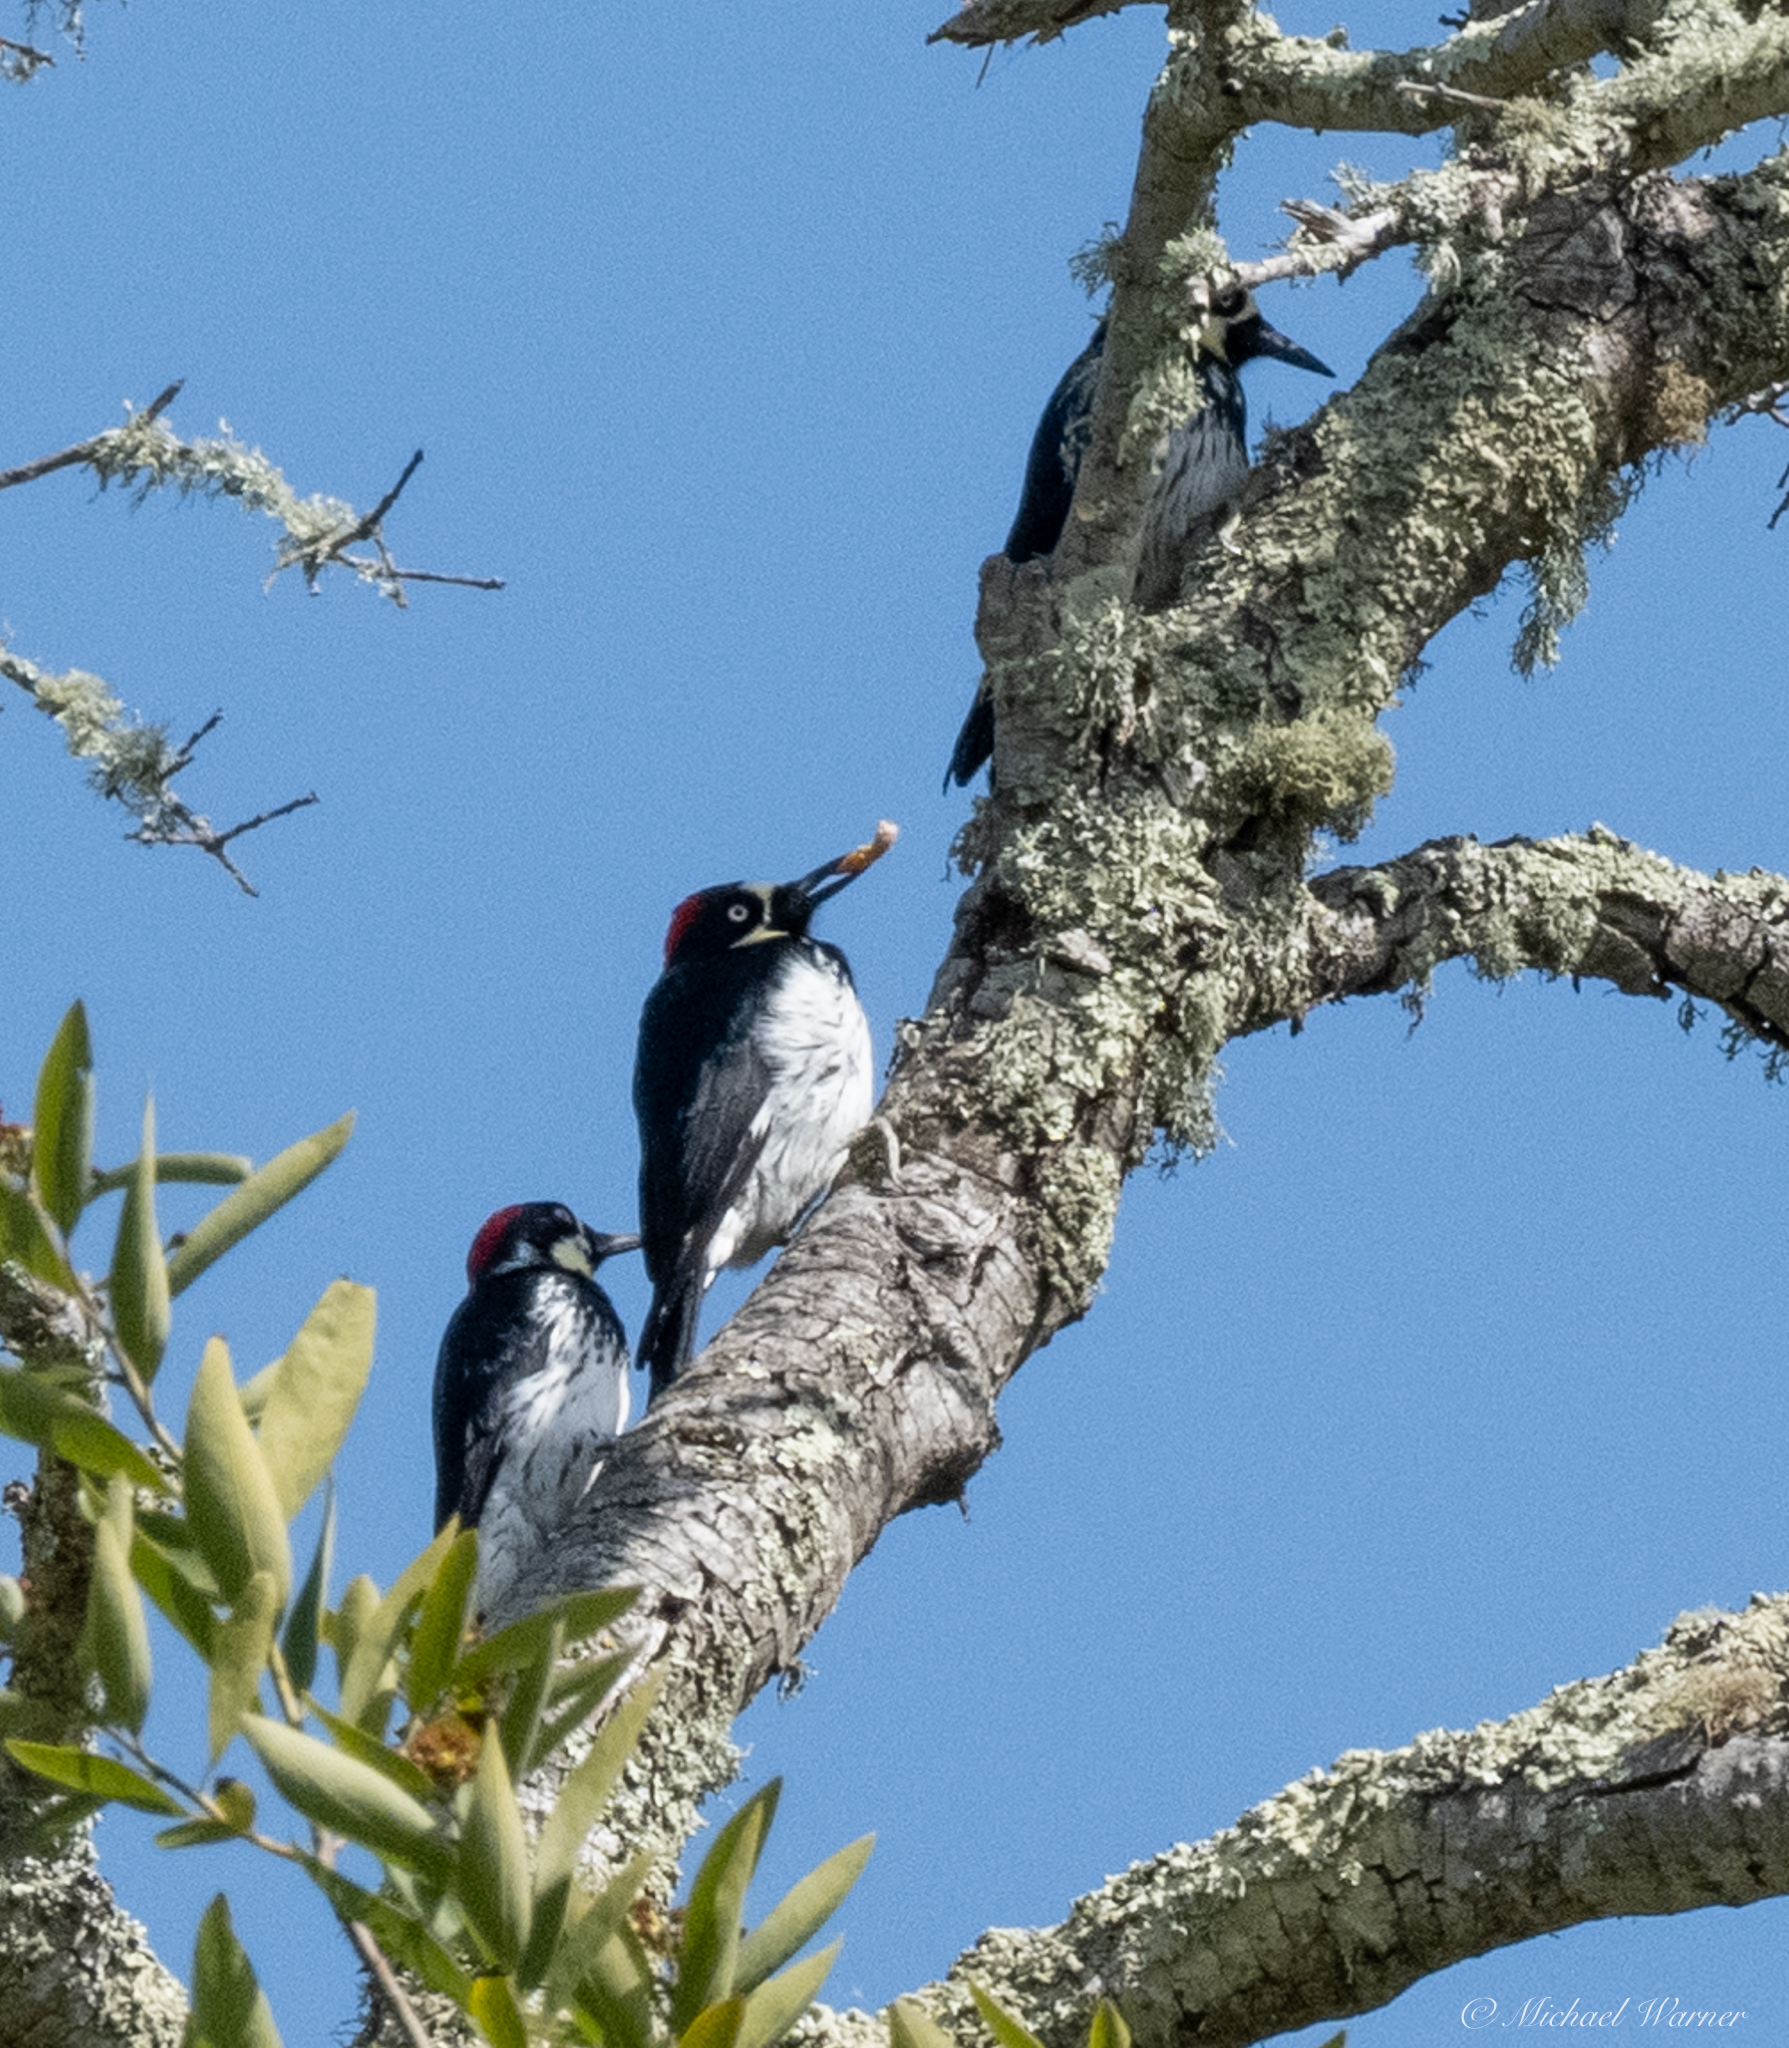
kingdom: Animalia
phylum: Chordata
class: Aves
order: Piciformes
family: Picidae
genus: Melanerpes
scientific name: Melanerpes formicivorus
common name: Acorn woodpecker
